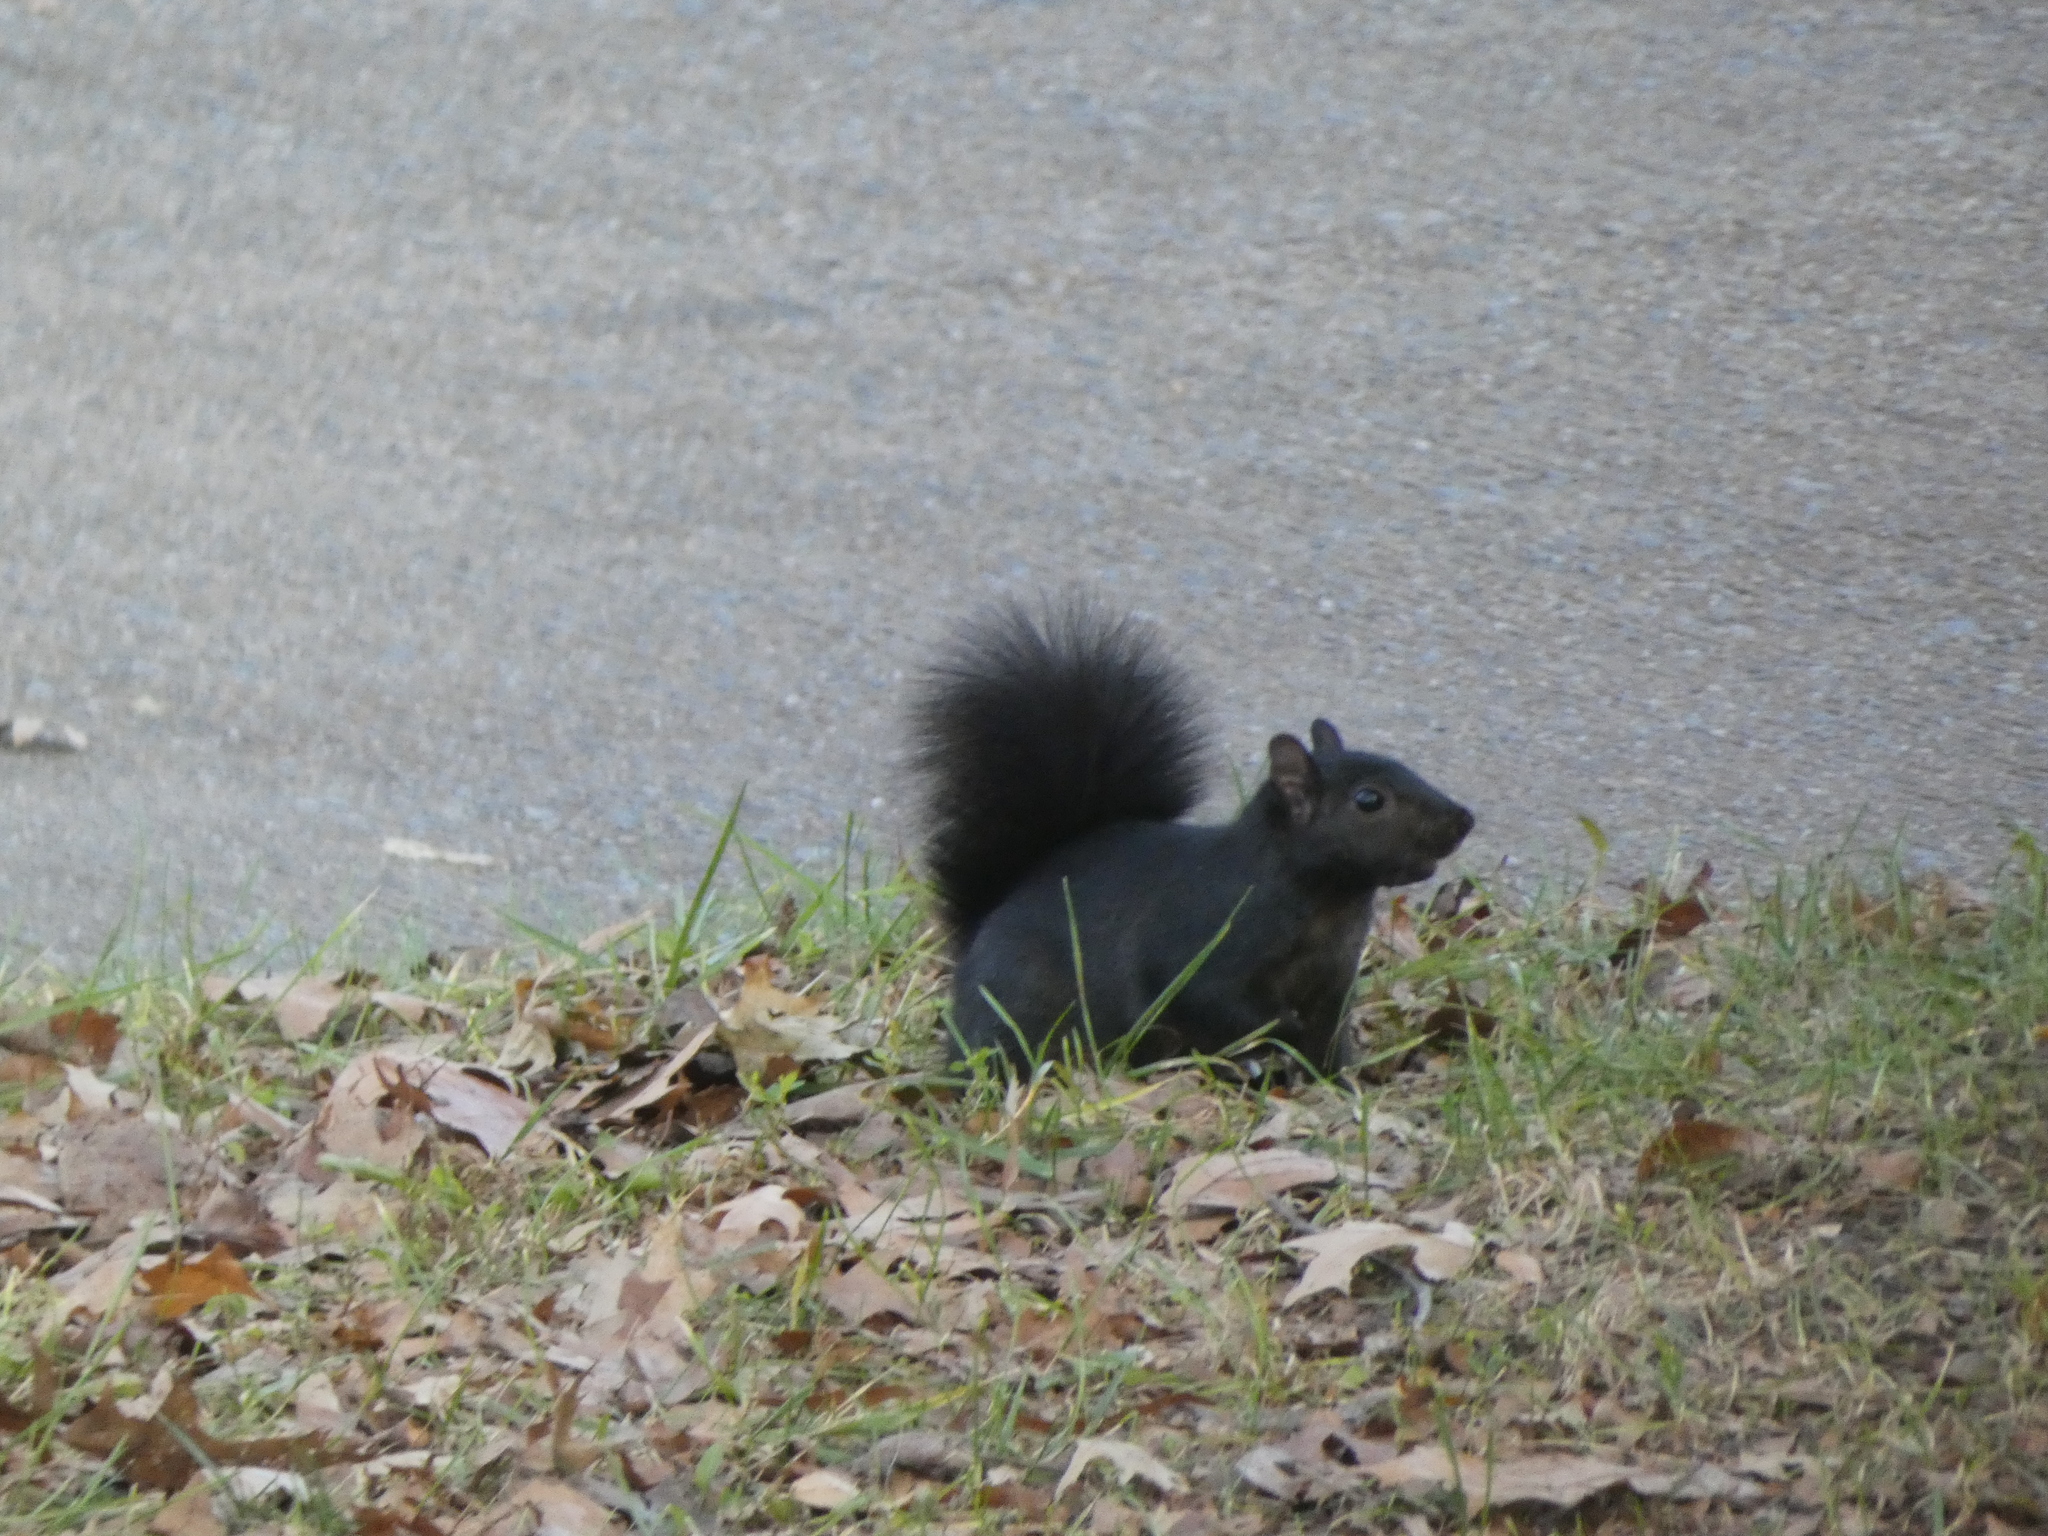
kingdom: Animalia
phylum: Chordata
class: Mammalia
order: Rodentia
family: Sciuridae
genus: Sciurus
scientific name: Sciurus carolinensis
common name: Eastern gray squirrel
